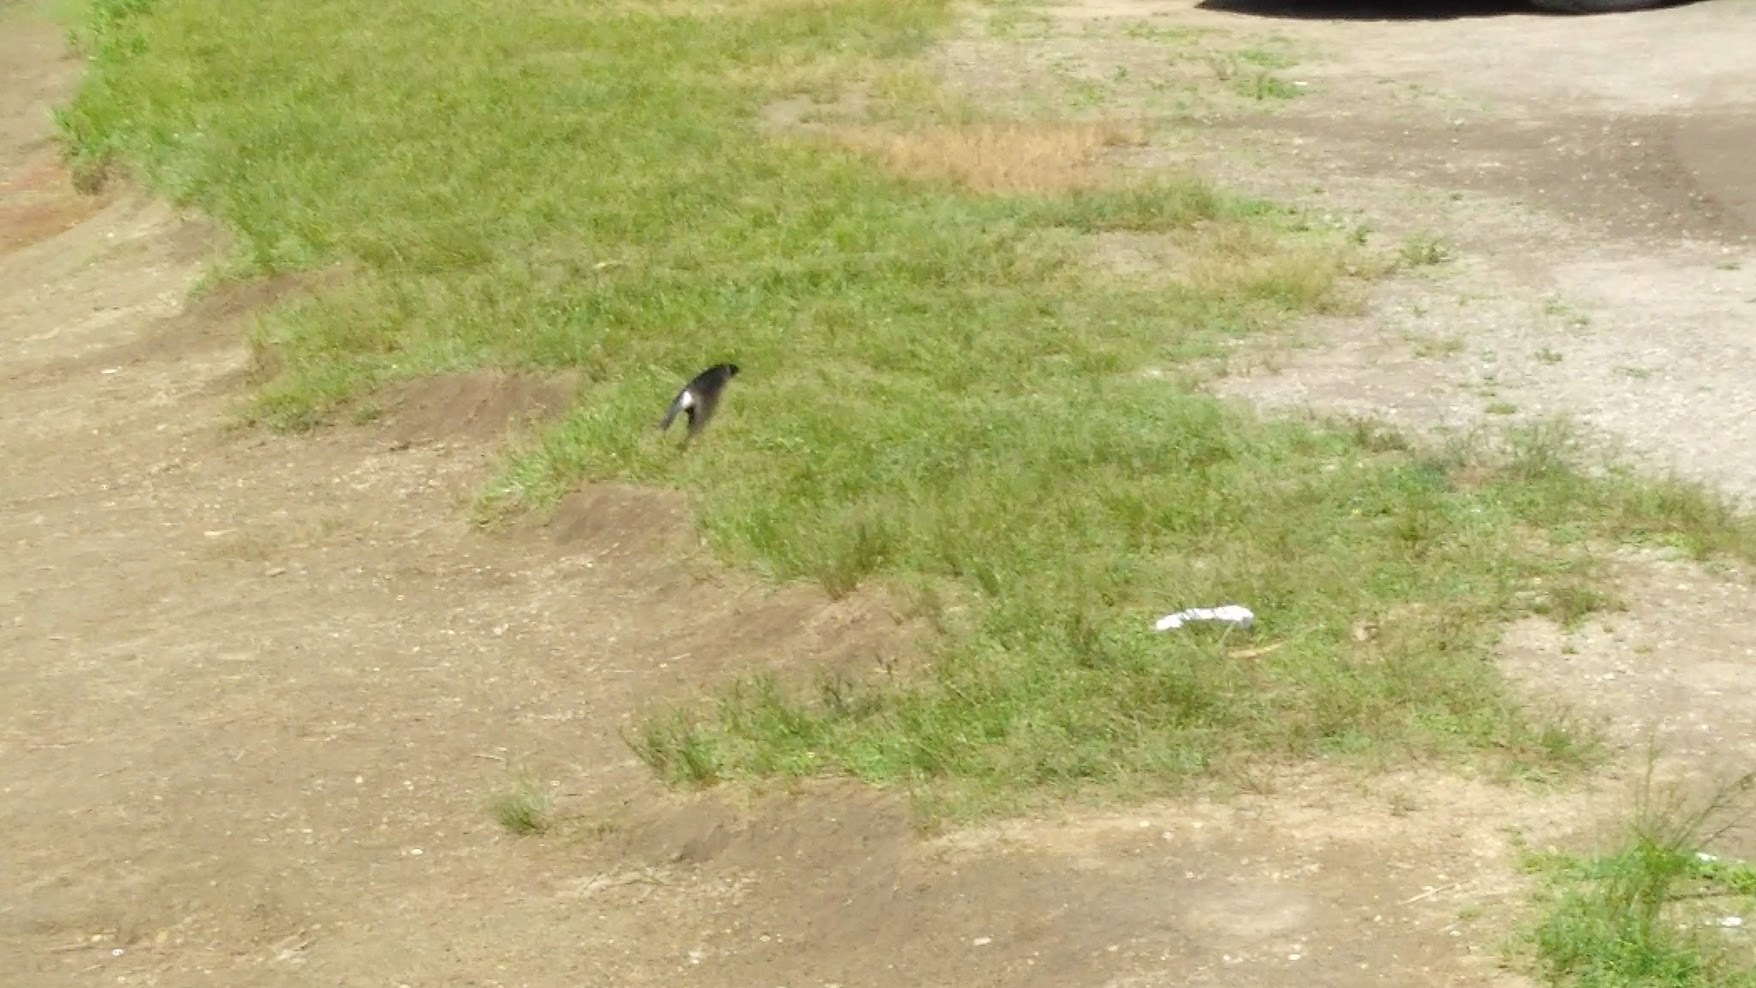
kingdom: Animalia
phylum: Chordata
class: Aves
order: Passeriformes
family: Hirundinidae
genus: Tachycineta
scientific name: Tachycineta bicolor
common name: Tree swallow
